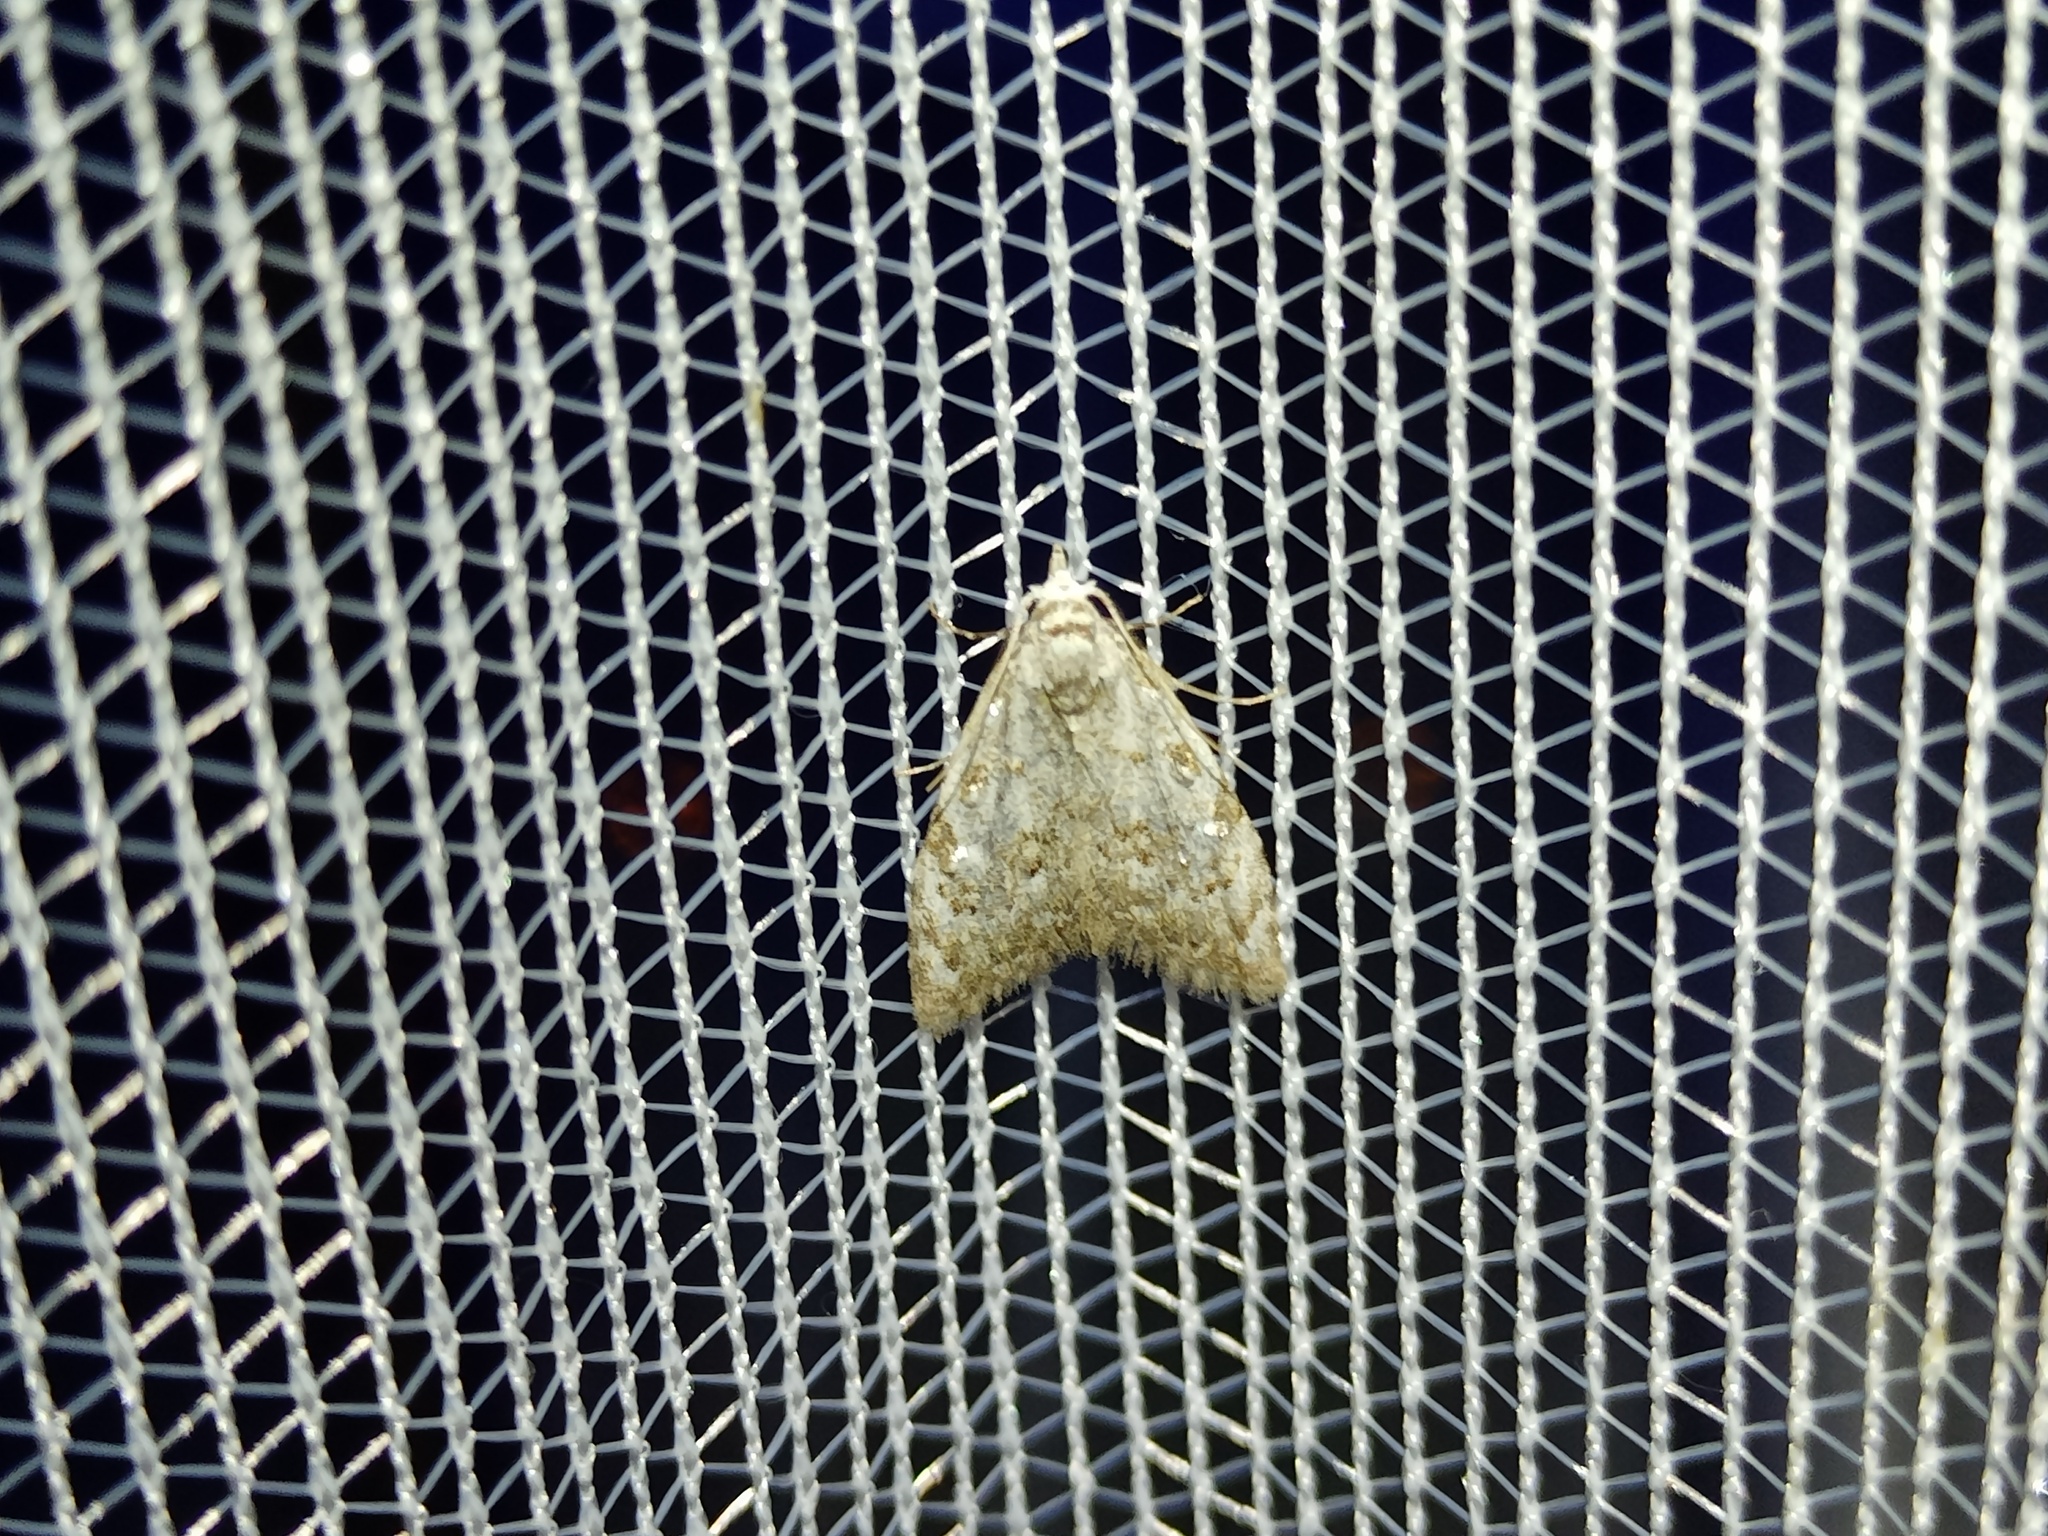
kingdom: Animalia
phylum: Arthropoda
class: Insecta
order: Lepidoptera
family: Nolidae
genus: Nola
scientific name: Nola confusalis
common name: Least black arches
